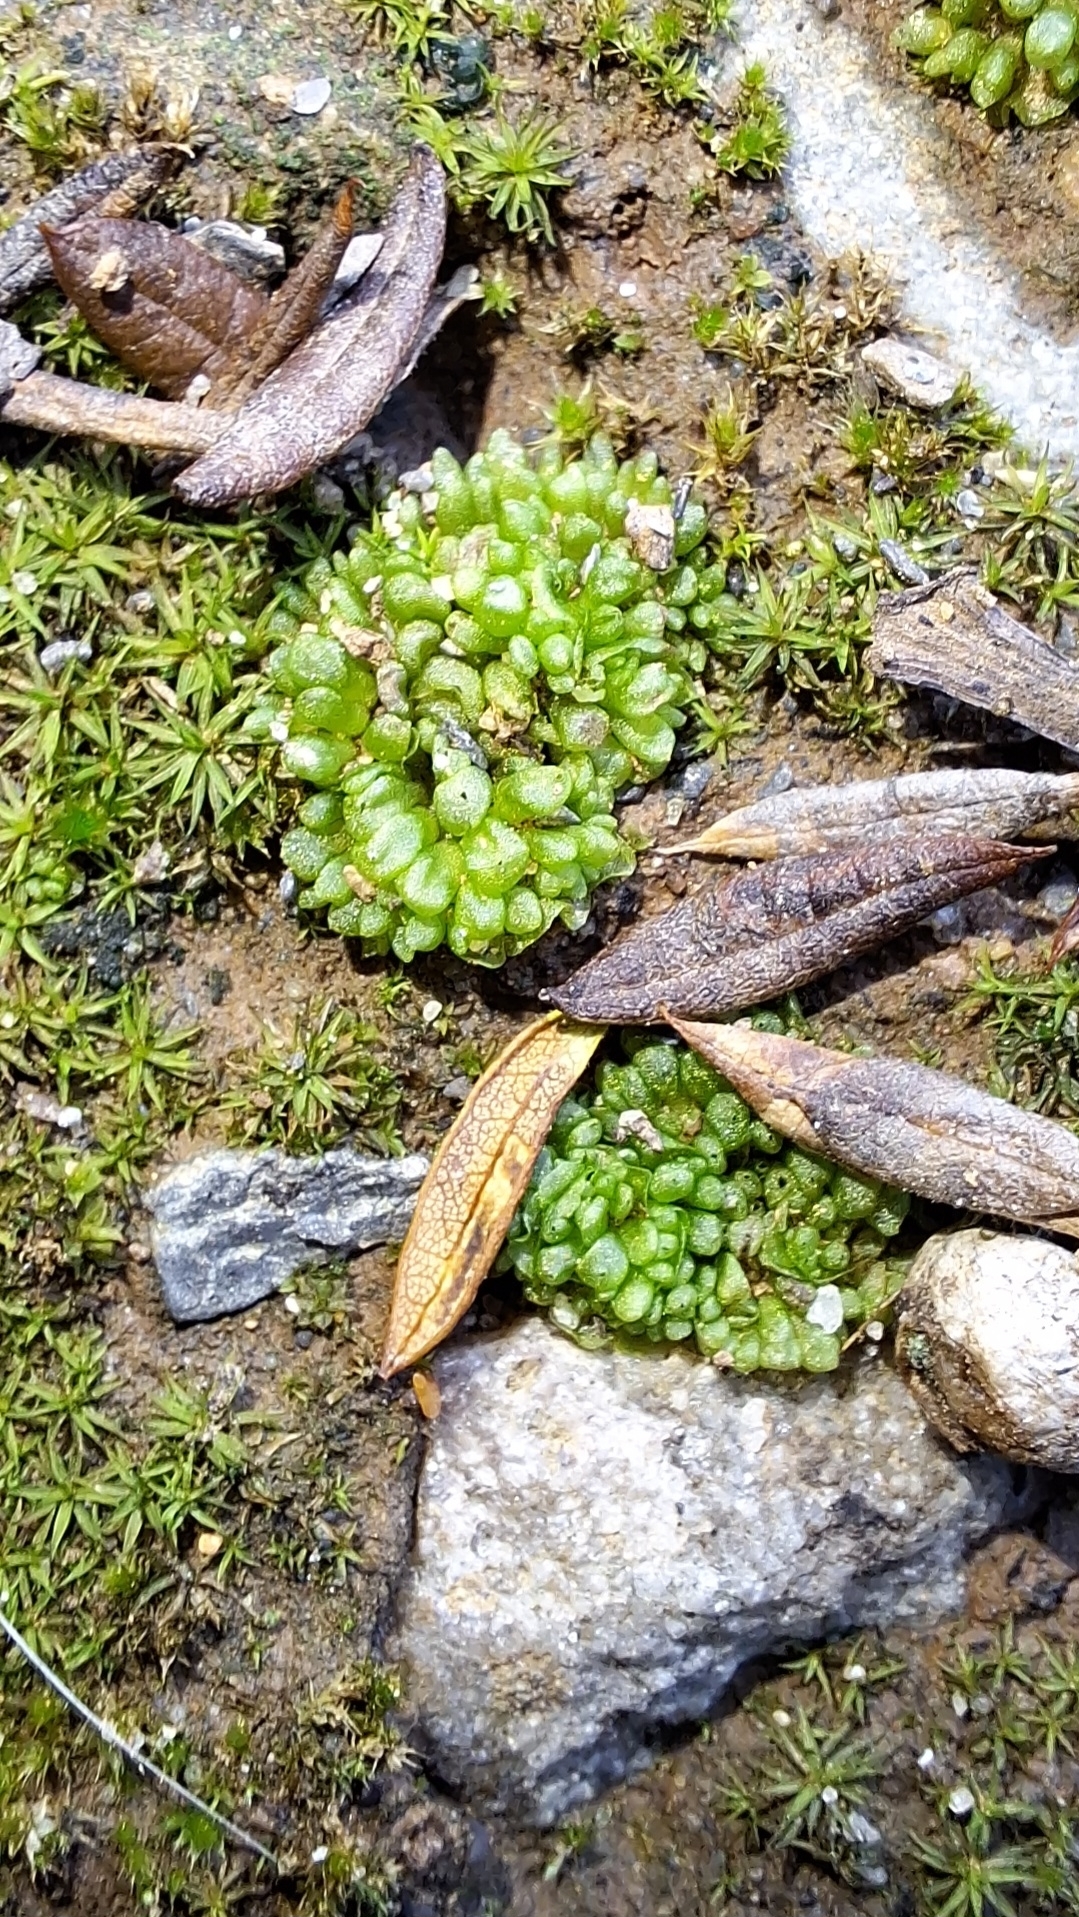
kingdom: Plantae
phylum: Marchantiophyta
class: Marchantiopsida
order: Sphaerocarpales
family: Sphaerocarpaceae
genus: Sphaerocarpos
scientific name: Sphaerocarpos texanus
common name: Texas balloonwort
